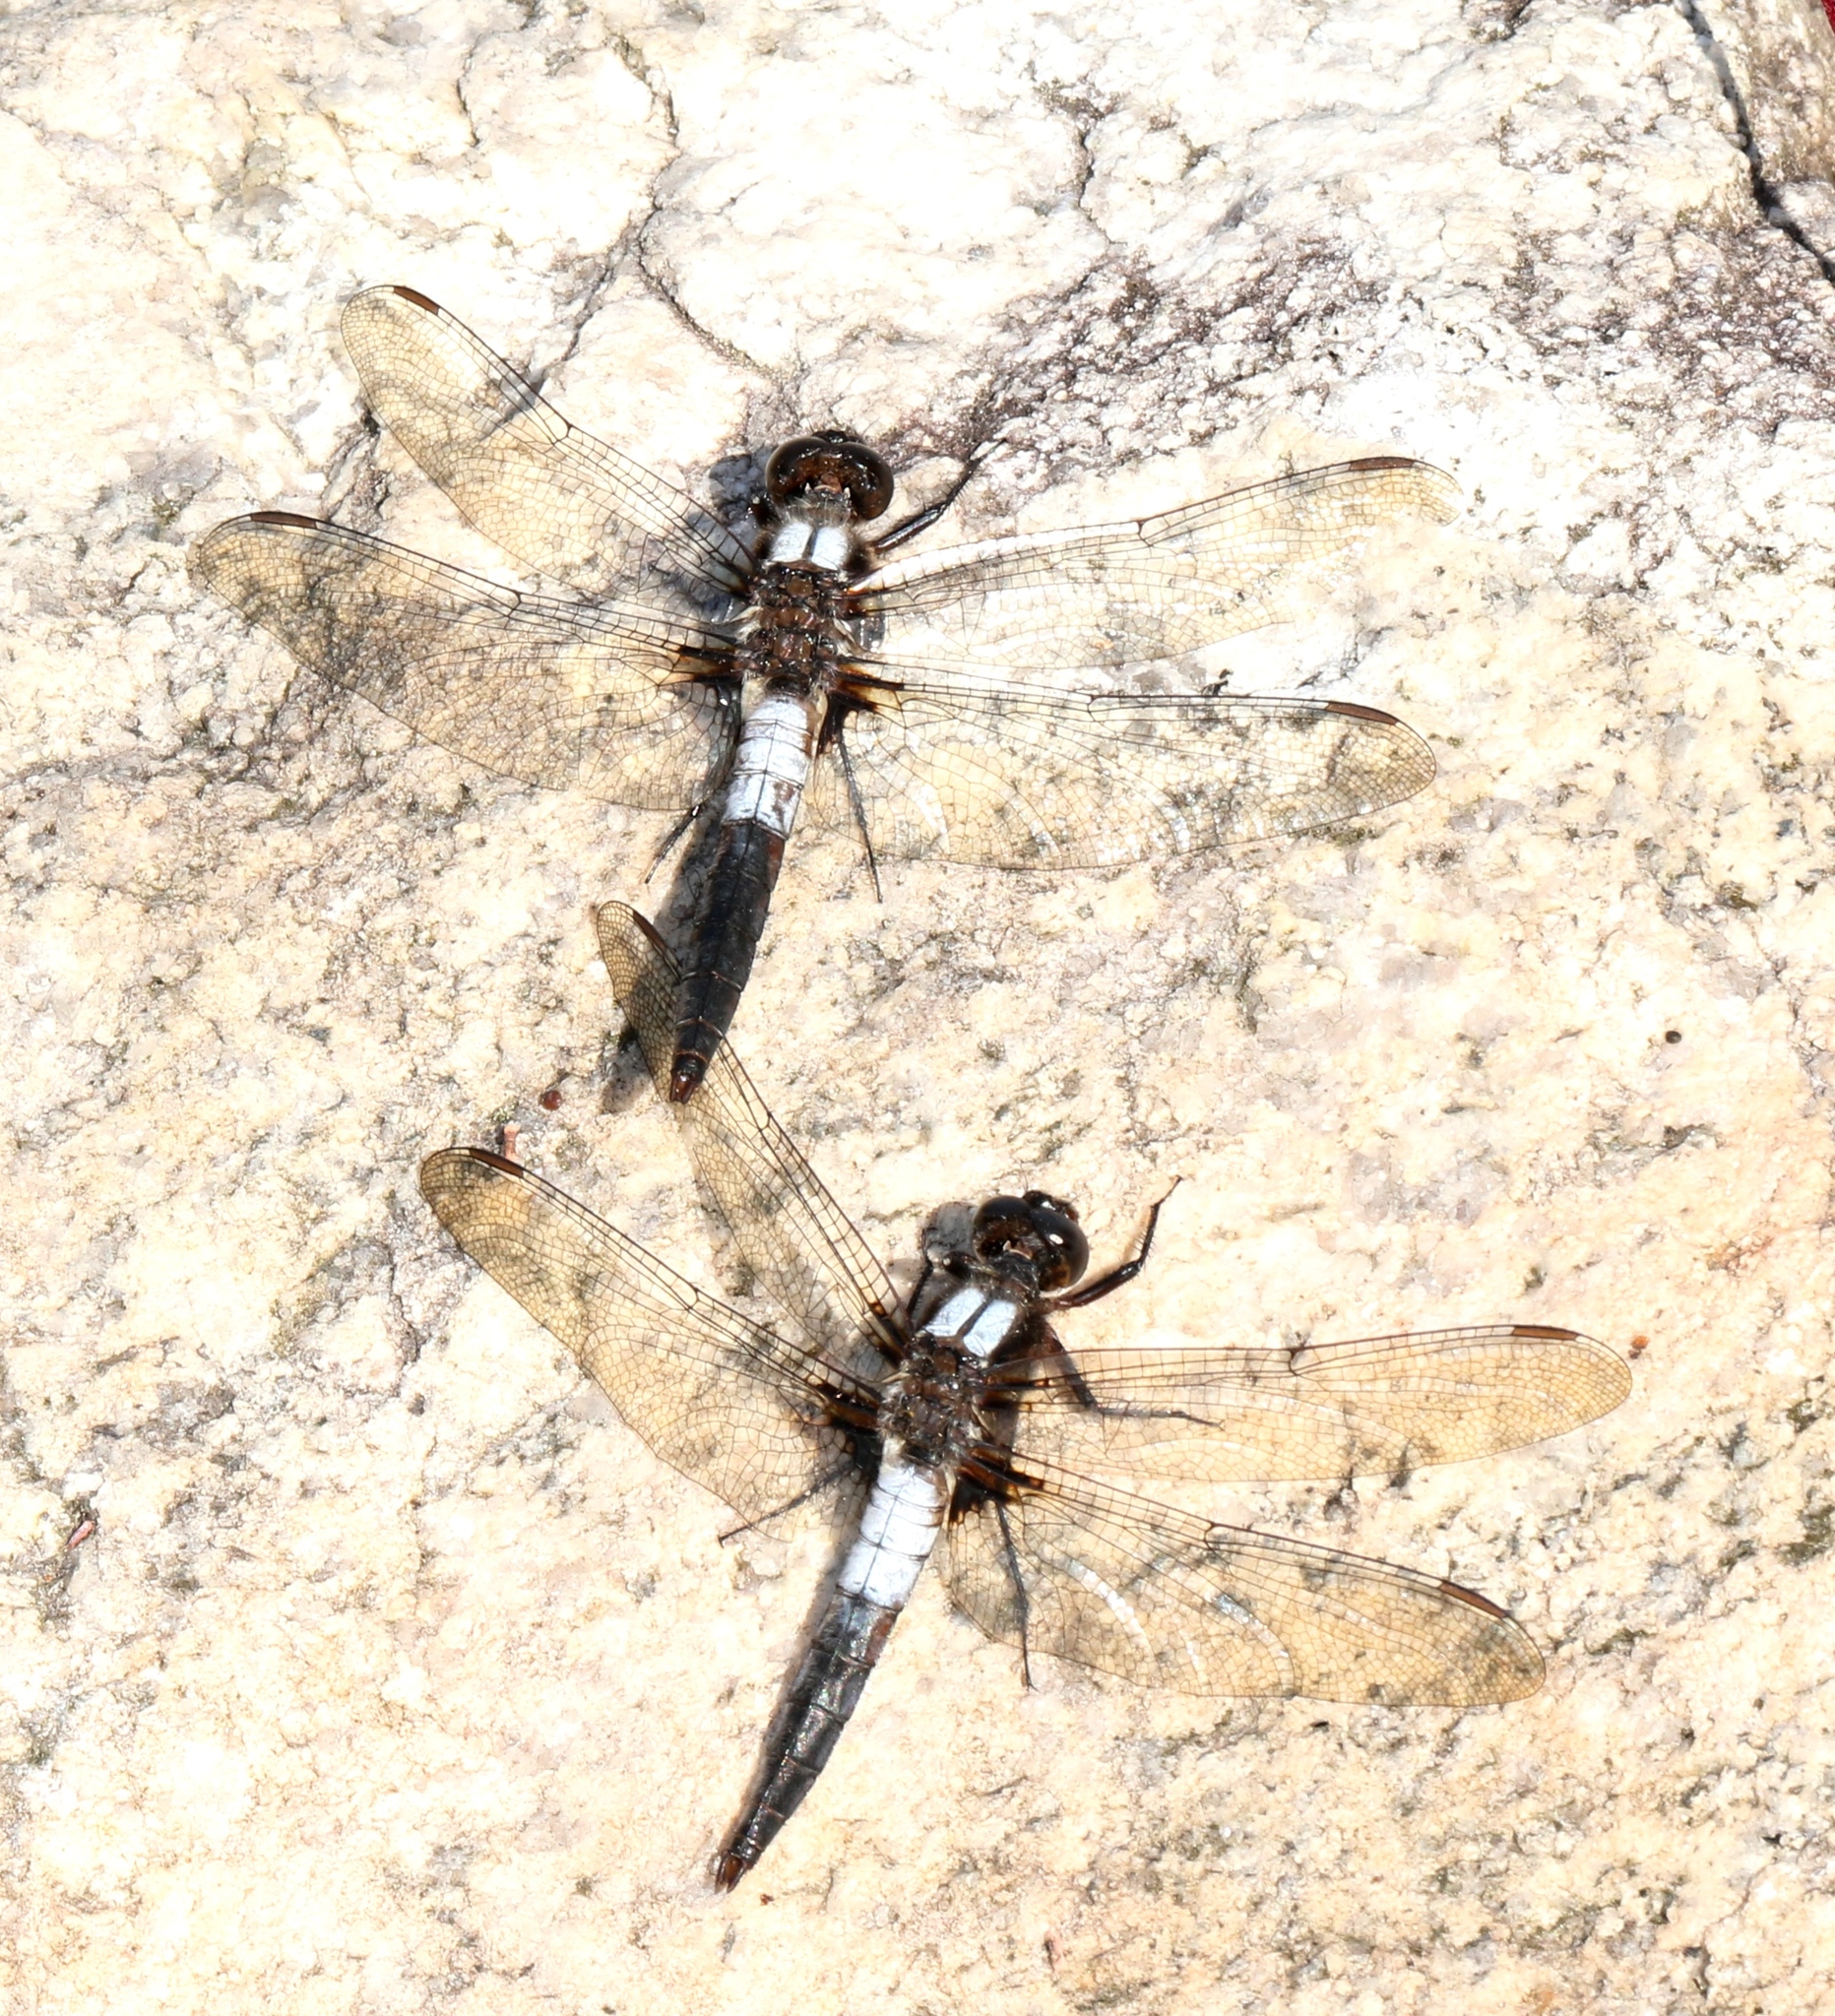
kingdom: Animalia
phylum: Arthropoda
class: Insecta
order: Odonata
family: Libellulidae
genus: Ladona
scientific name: Ladona julia
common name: Chalk-fronted corporal
